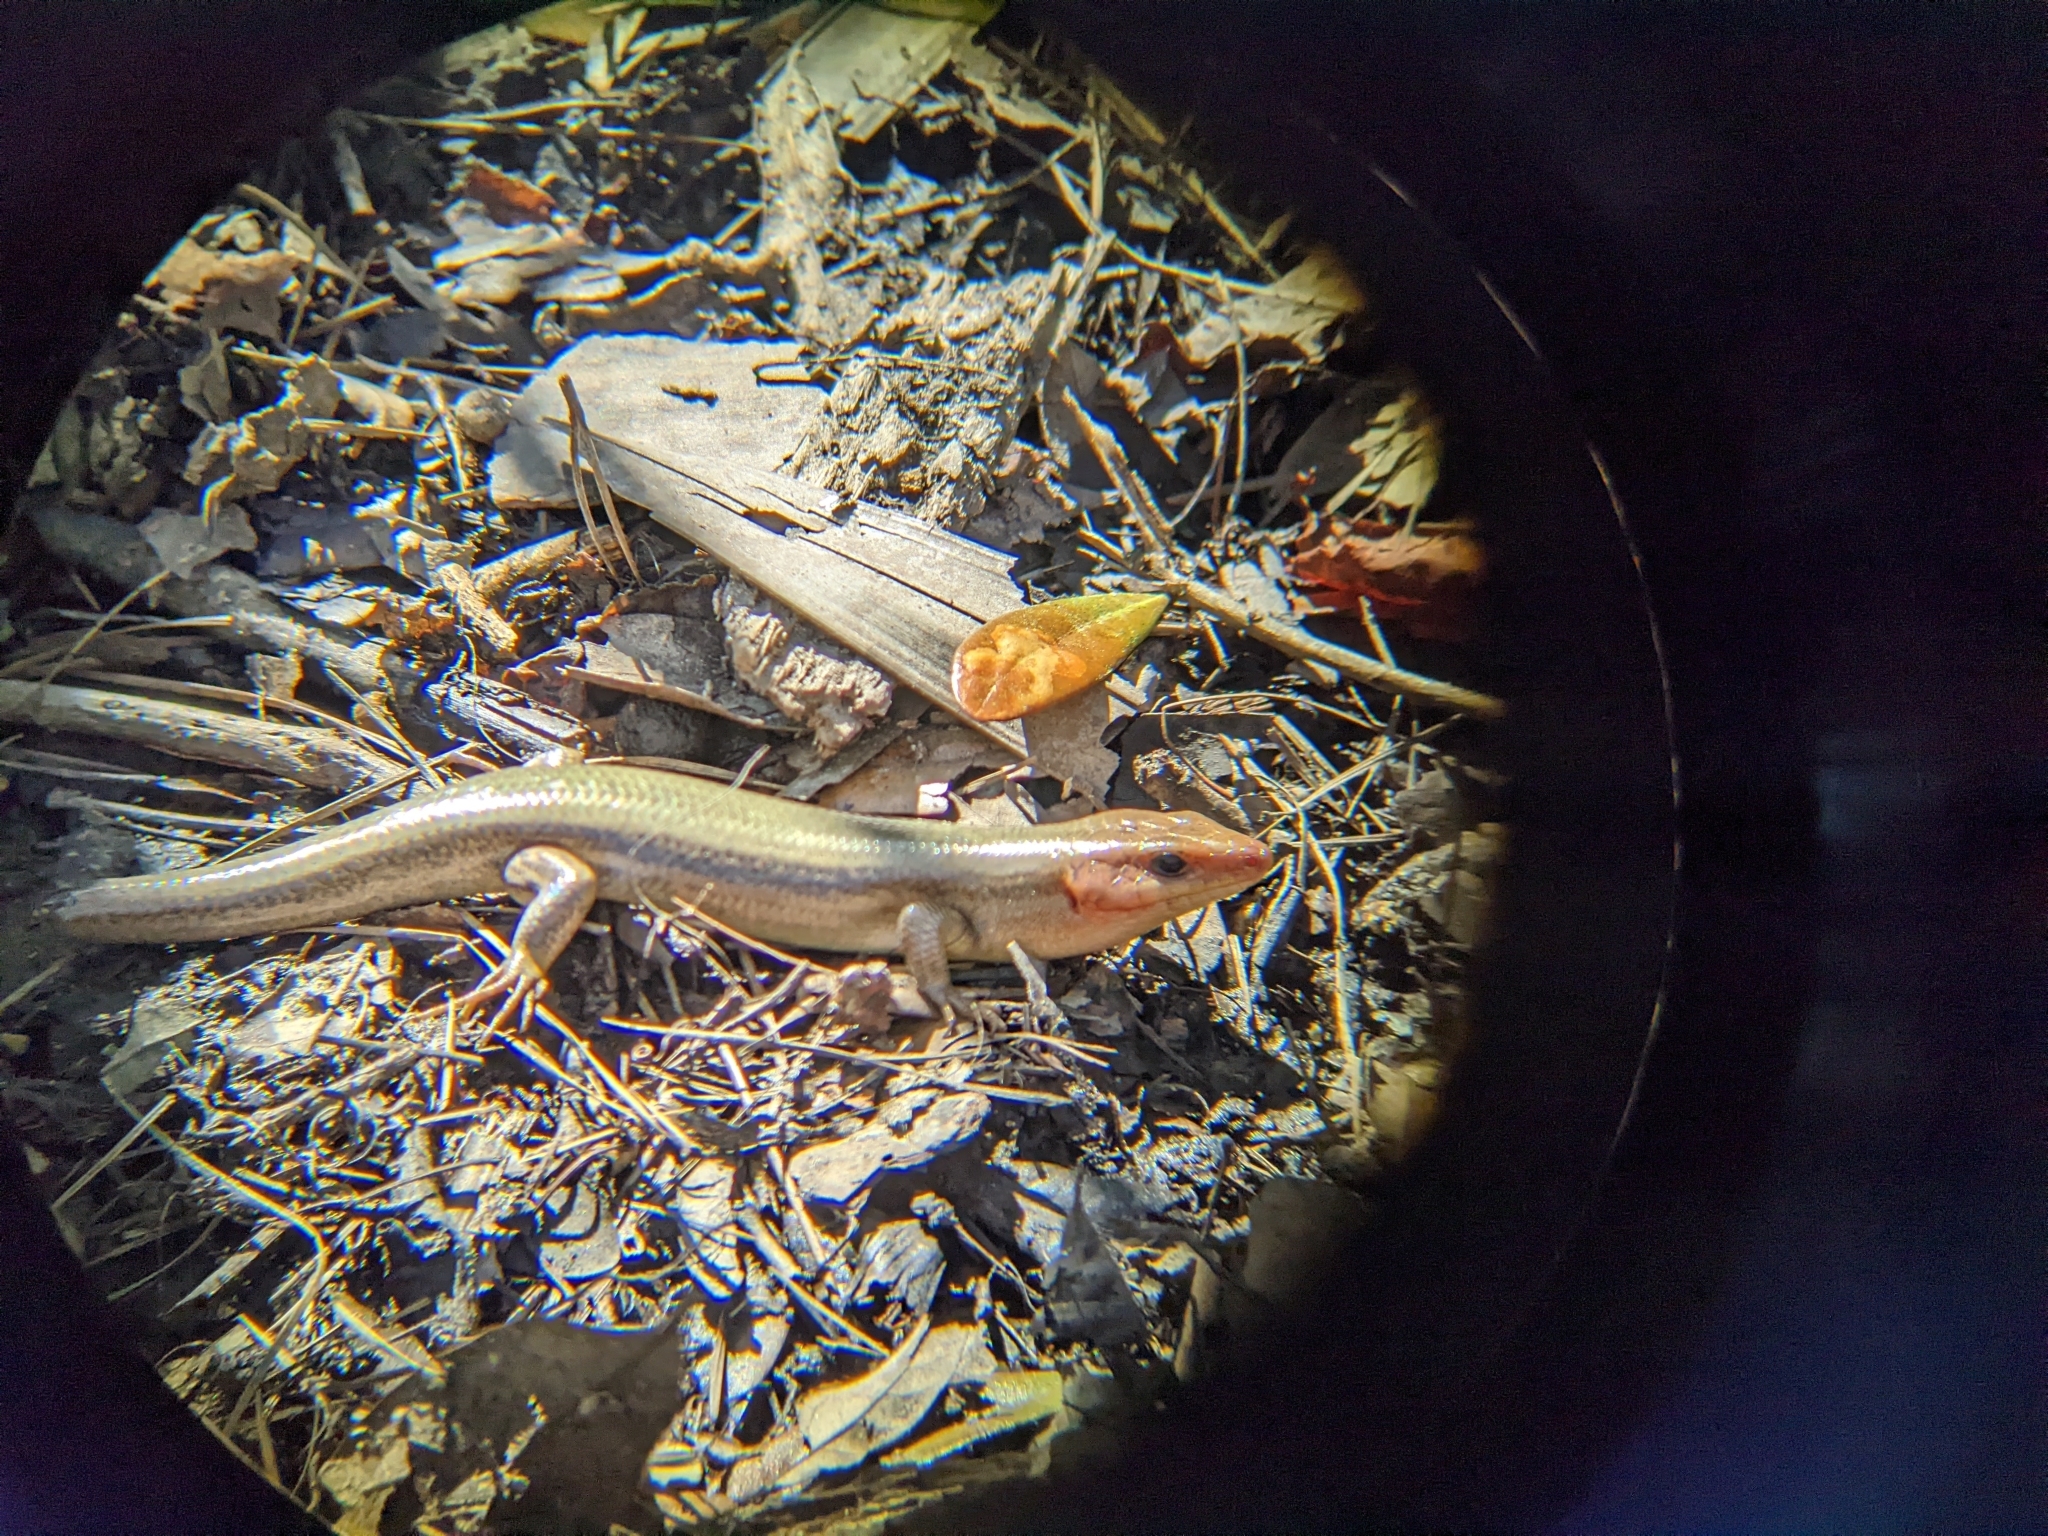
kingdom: Animalia
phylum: Chordata
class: Squamata
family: Scincidae
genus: Plestiodon
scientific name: Plestiodon laticeps
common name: Broadhead skink
